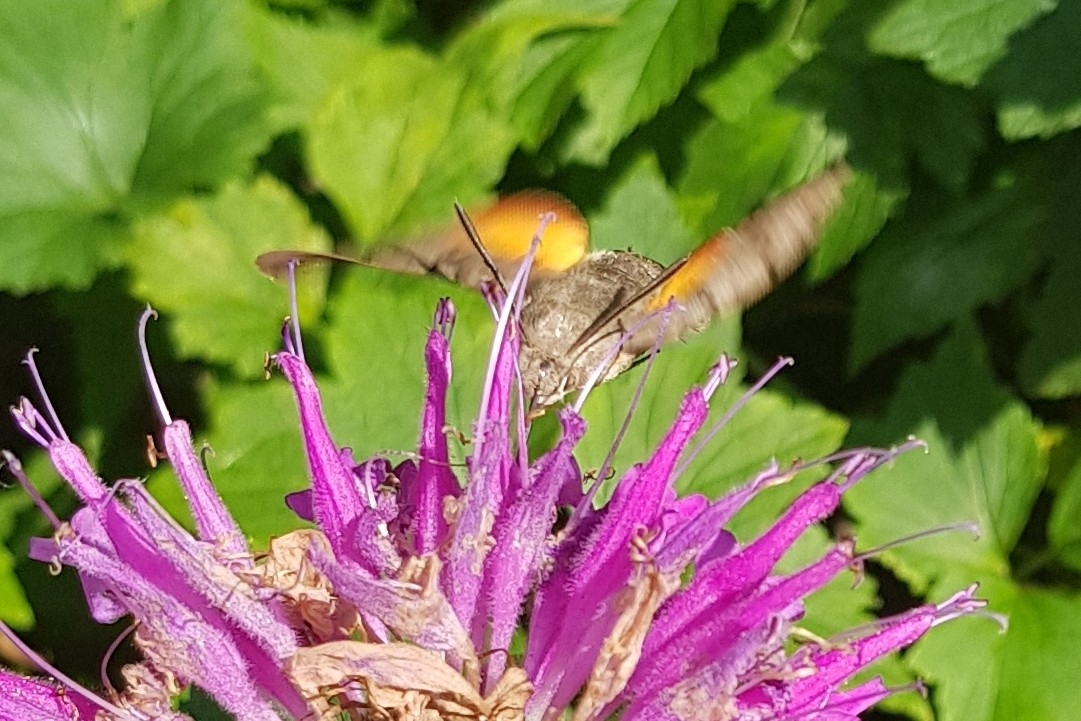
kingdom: Animalia
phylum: Arthropoda
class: Insecta
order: Lepidoptera
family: Sphingidae
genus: Macroglossum
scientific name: Macroglossum stellatarum
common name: Humming-bird hawk-moth
